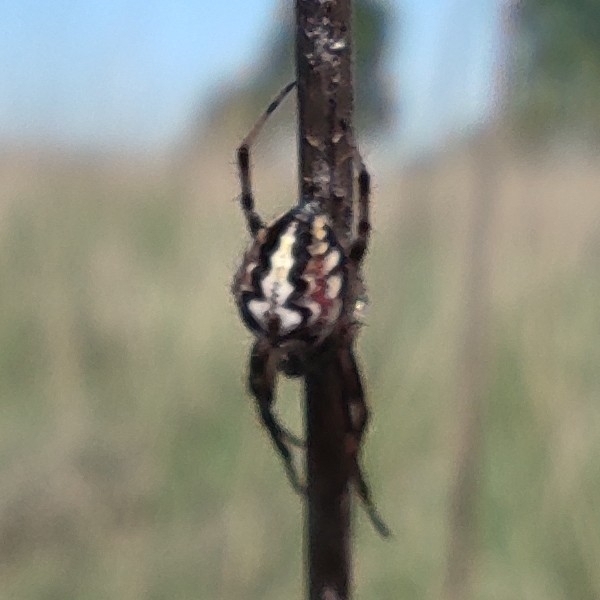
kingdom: Animalia
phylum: Arthropoda
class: Arachnida
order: Araneae
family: Araneidae
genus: Neoscona
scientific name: Neoscona adianta
